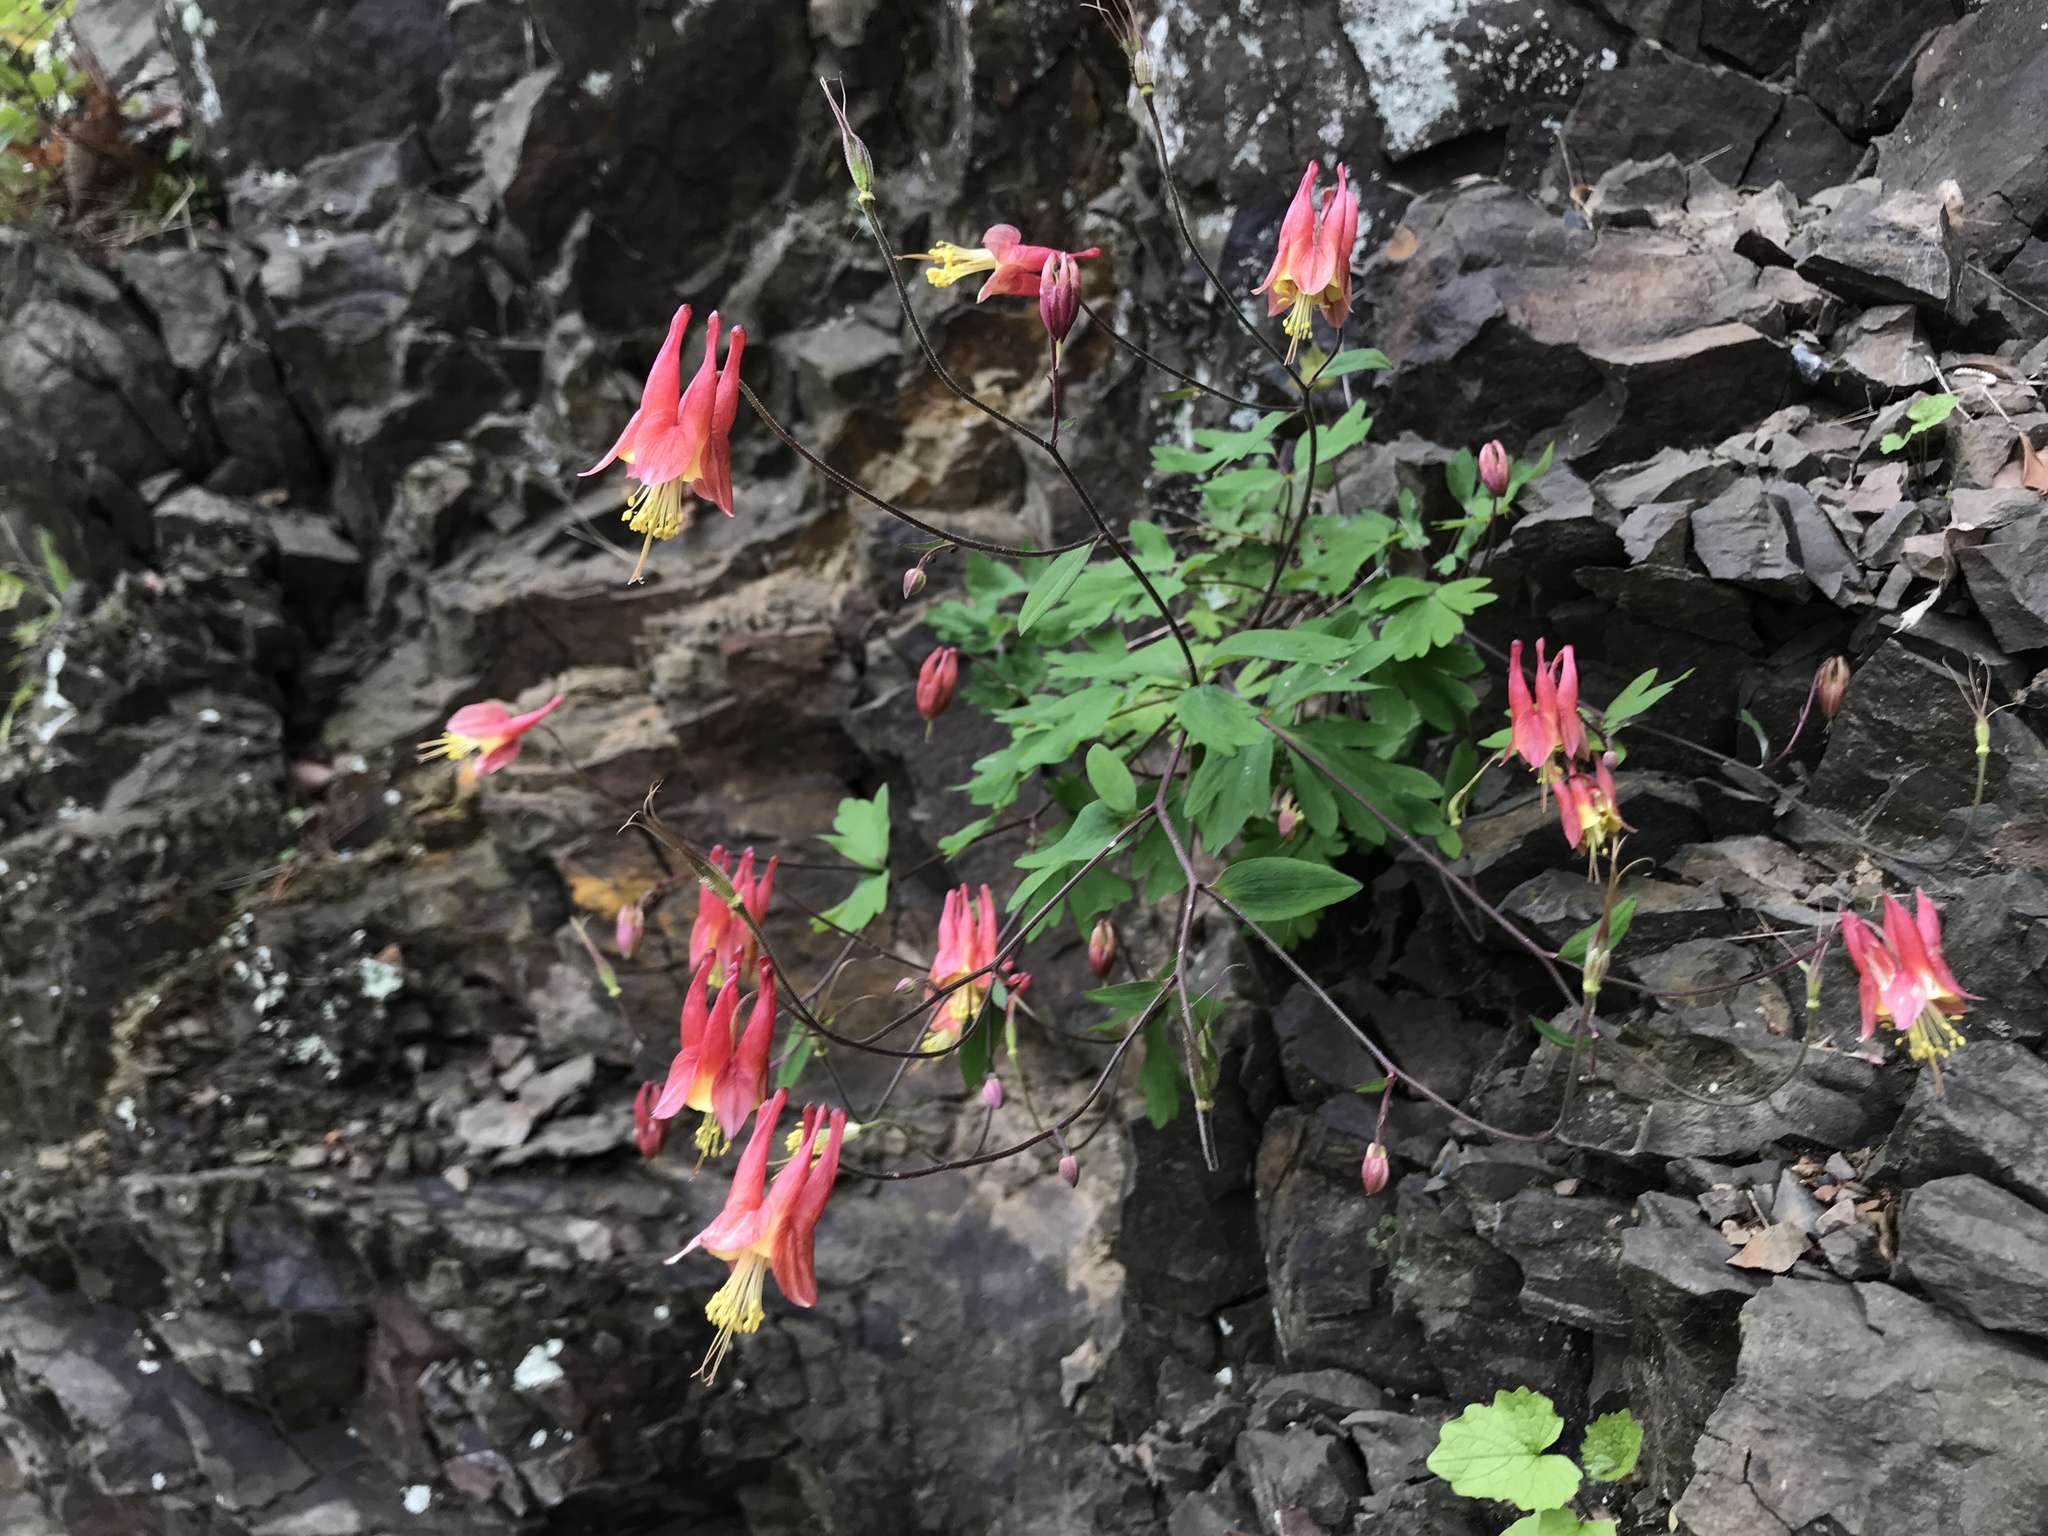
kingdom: Plantae
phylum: Tracheophyta
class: Magnoliopsida
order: Ranunculales
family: Ranunculaceae
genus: Aquilegia
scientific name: Aquilegia canadensis
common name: American columbine
